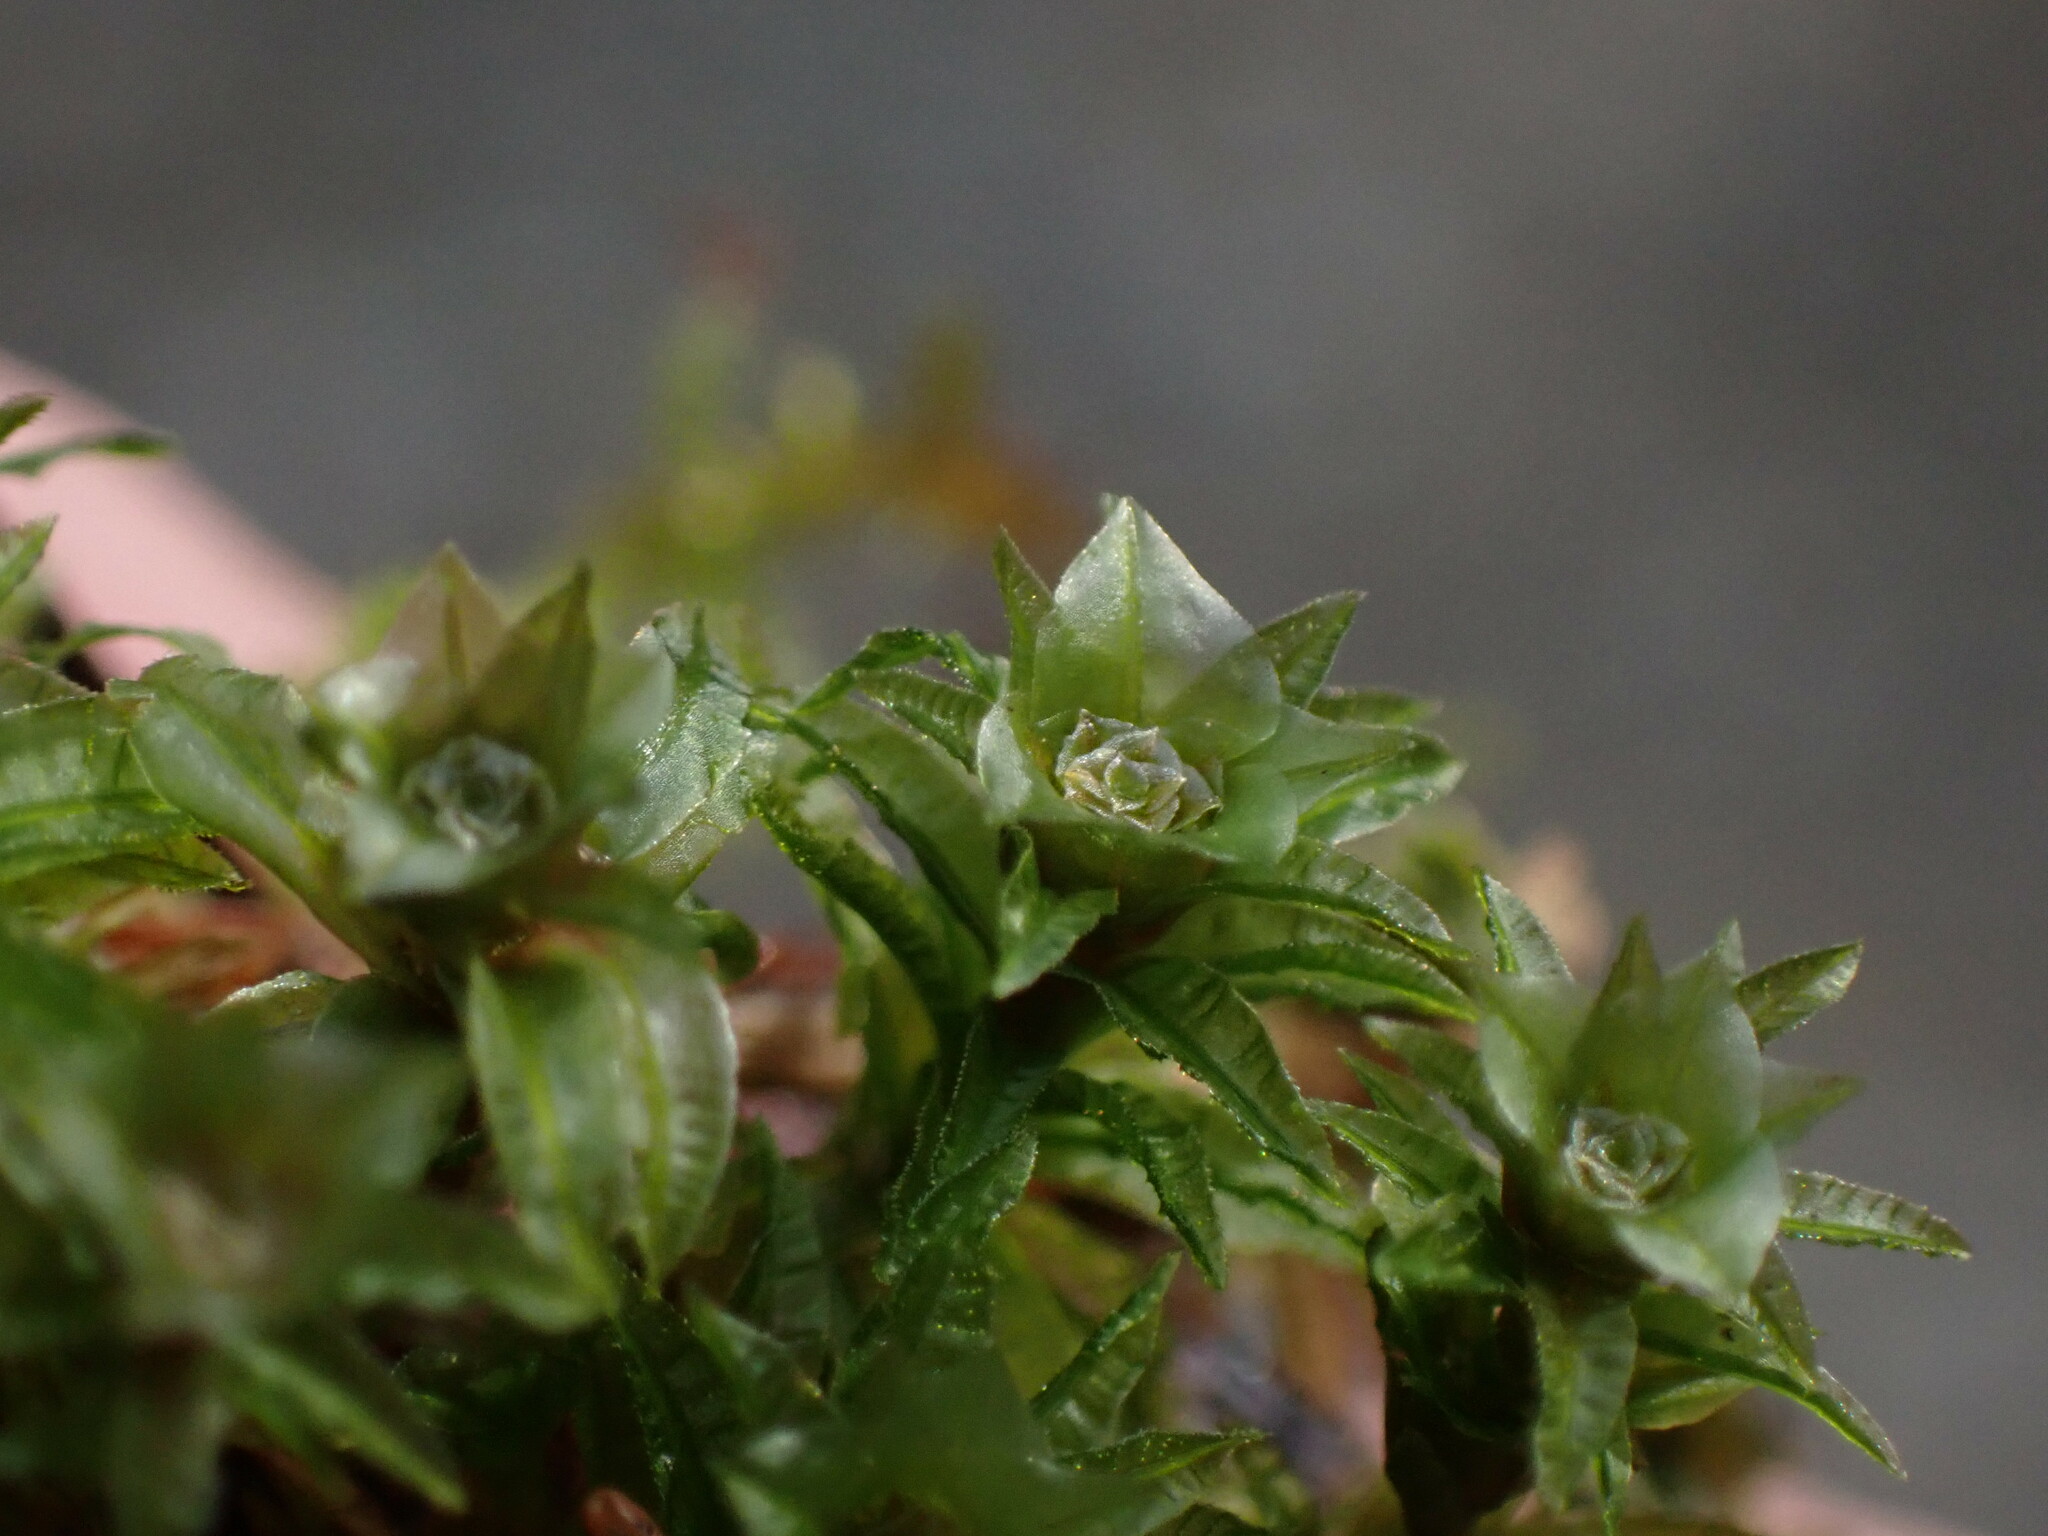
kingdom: Plantae
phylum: Bryophyta
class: Polytrichopsida
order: Polytrichales
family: Polytrichaceae
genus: Atrichum
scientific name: Atrichum selwynii
